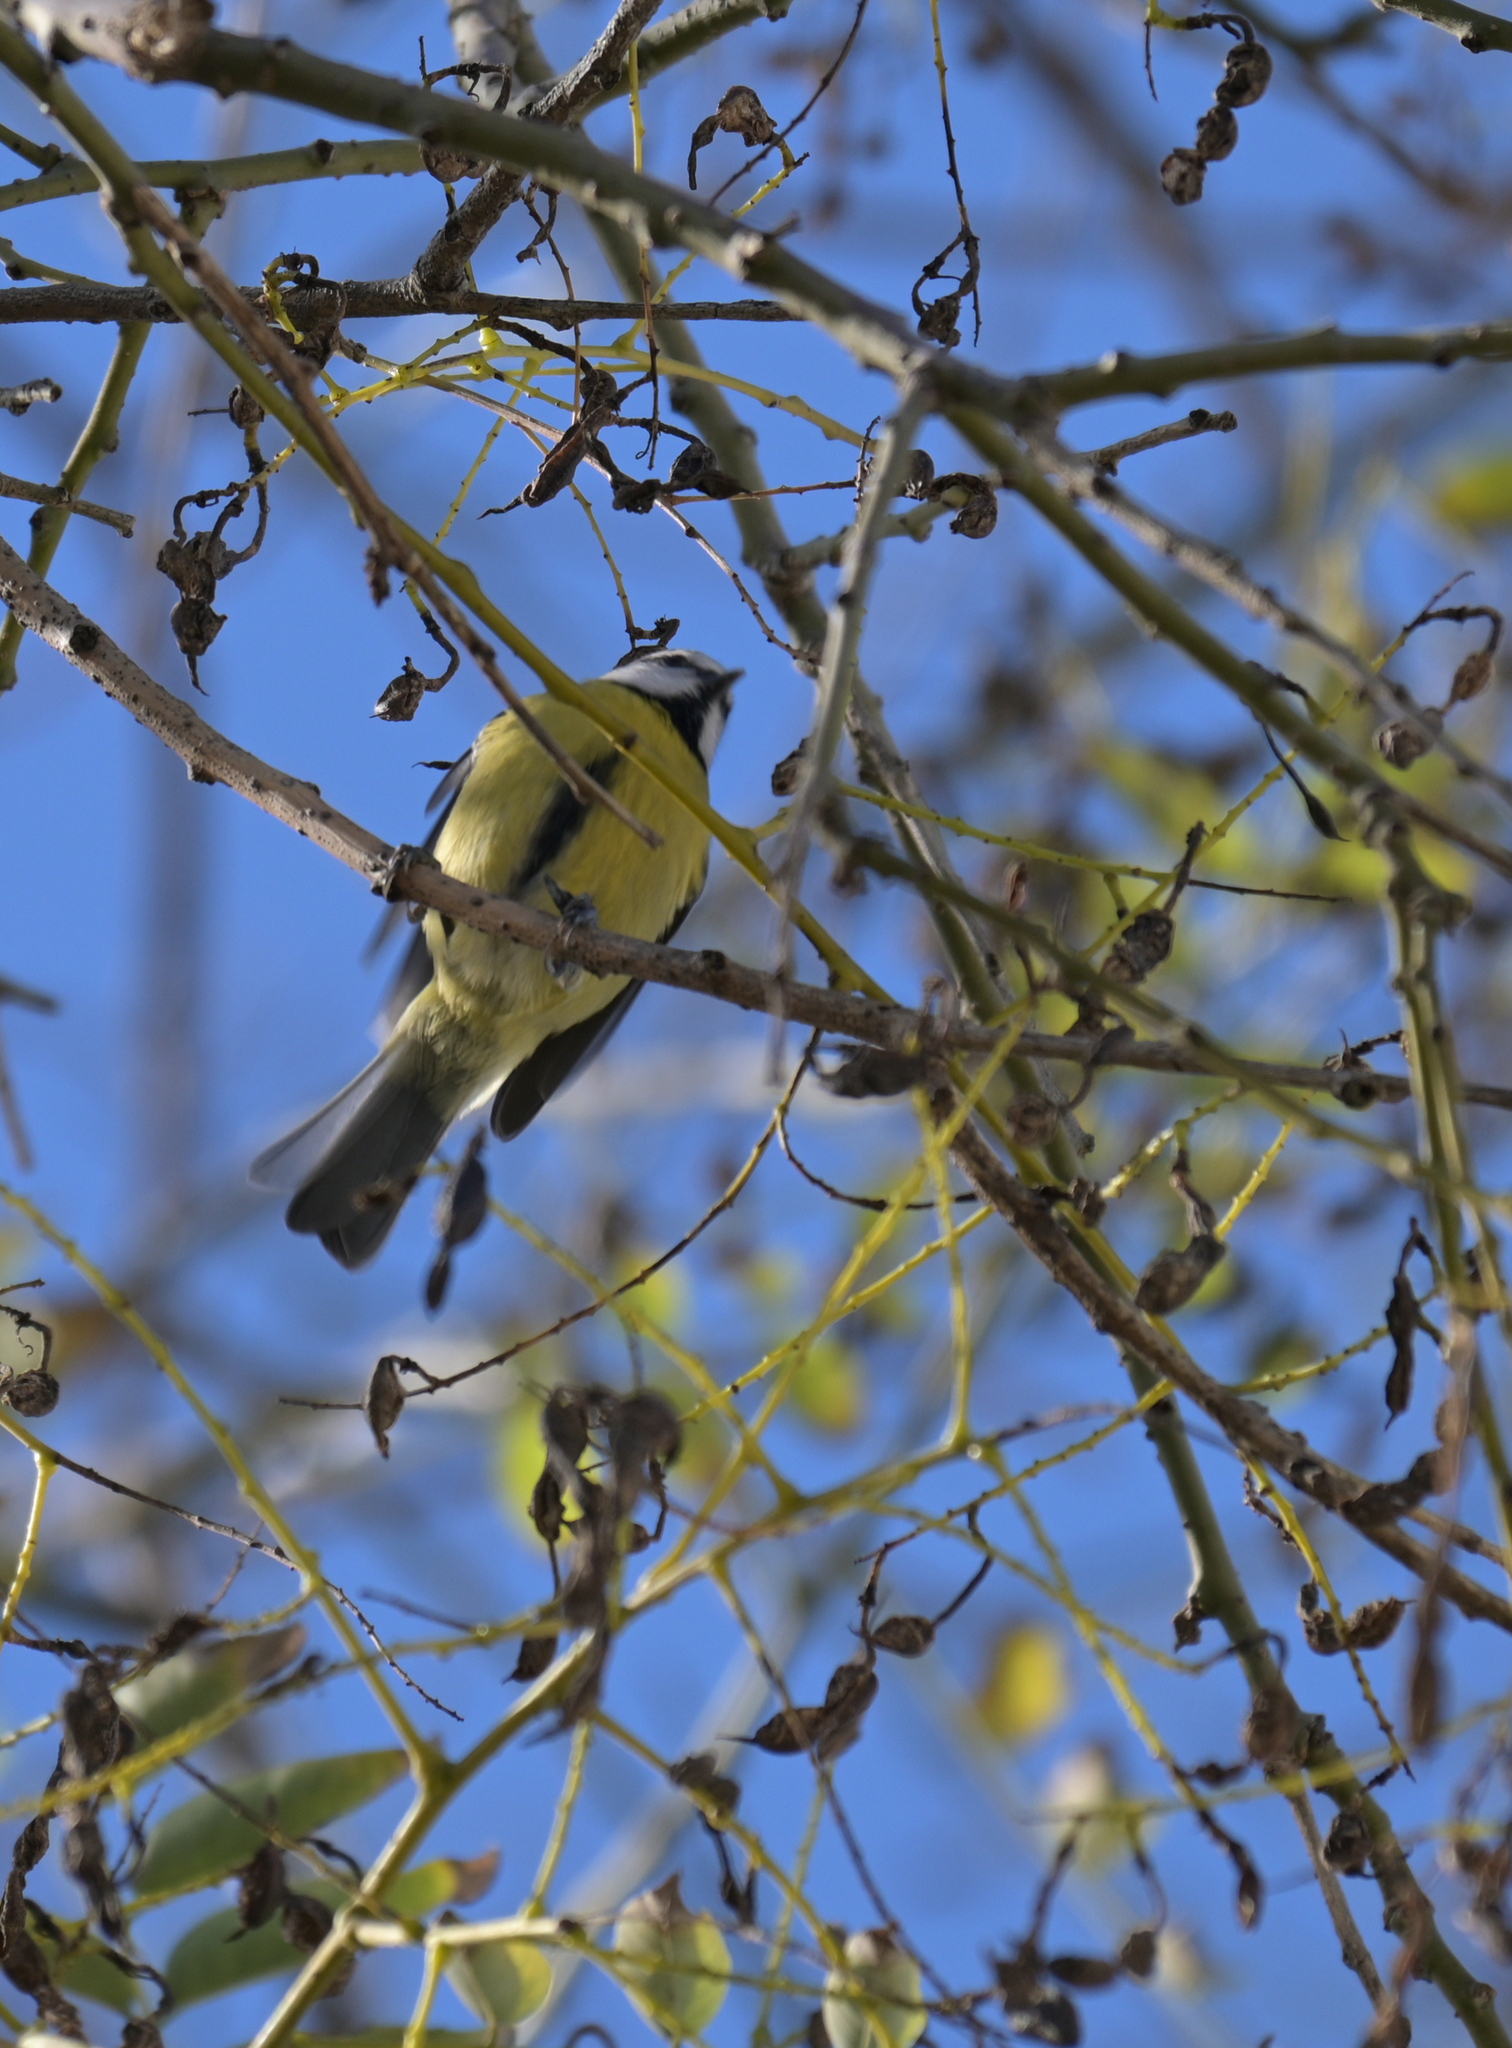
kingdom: Animalia
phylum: Chordata
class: Aves
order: Passeriformes
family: Paridae
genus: Cyanistes
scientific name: Cyanistes caeruleus
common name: Eurasian blue tit
